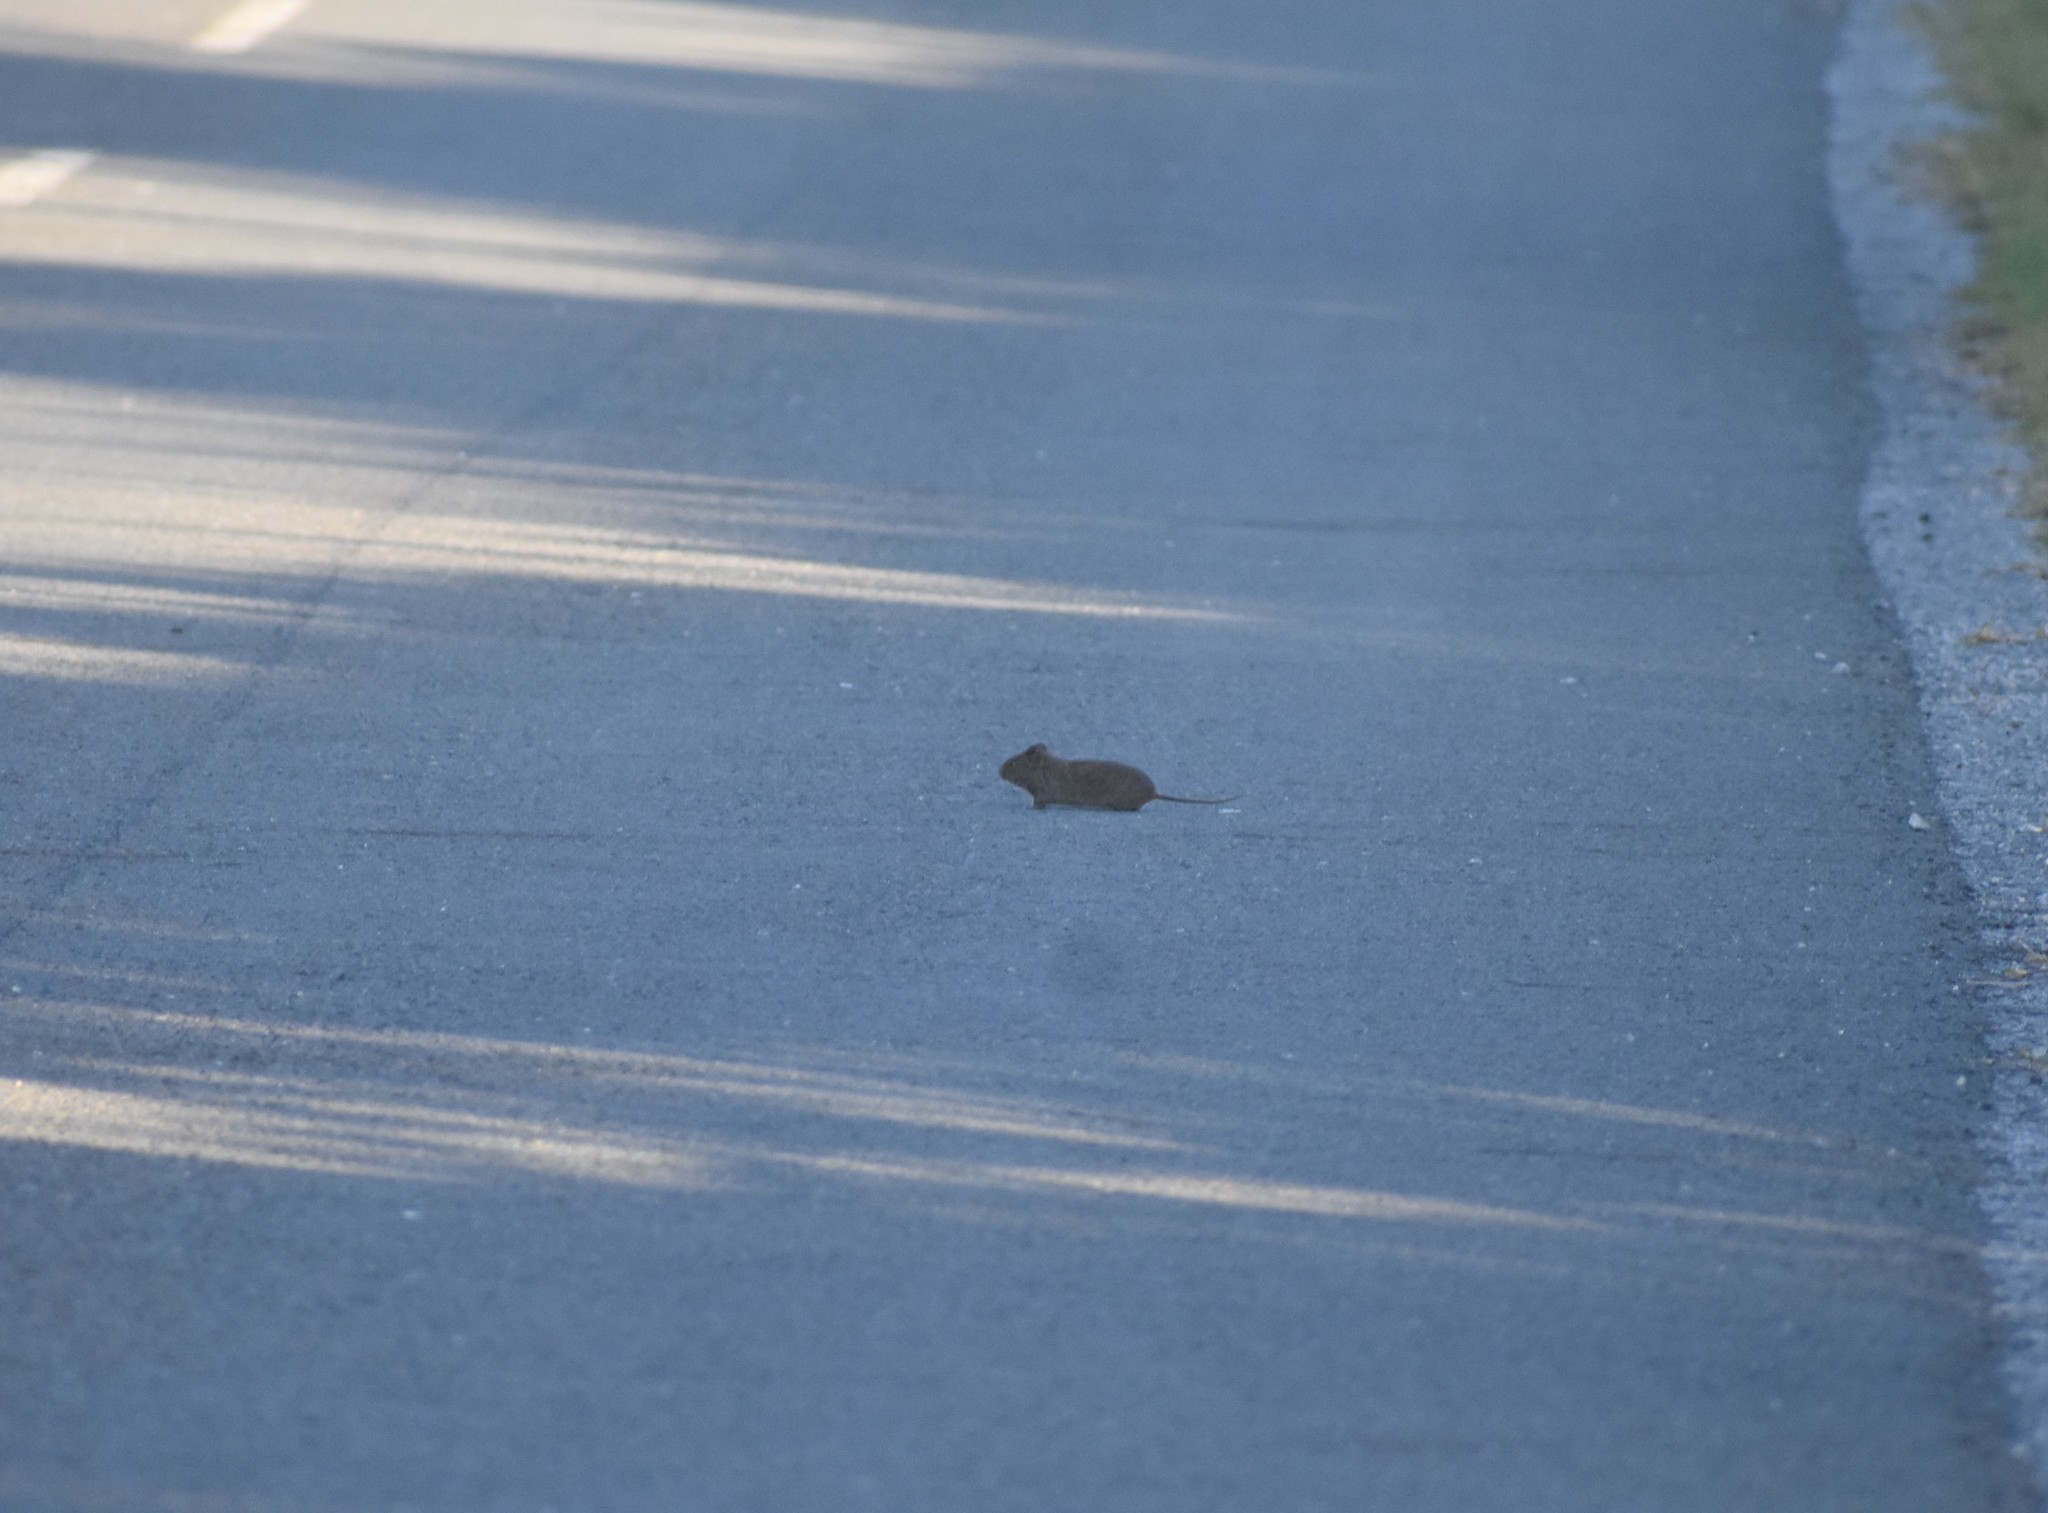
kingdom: Animalia
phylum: Chordata
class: Mammalia
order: Rodentia
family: Muridae
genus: Otomys
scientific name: Otomys irroratus
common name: Southern african vlei rat
